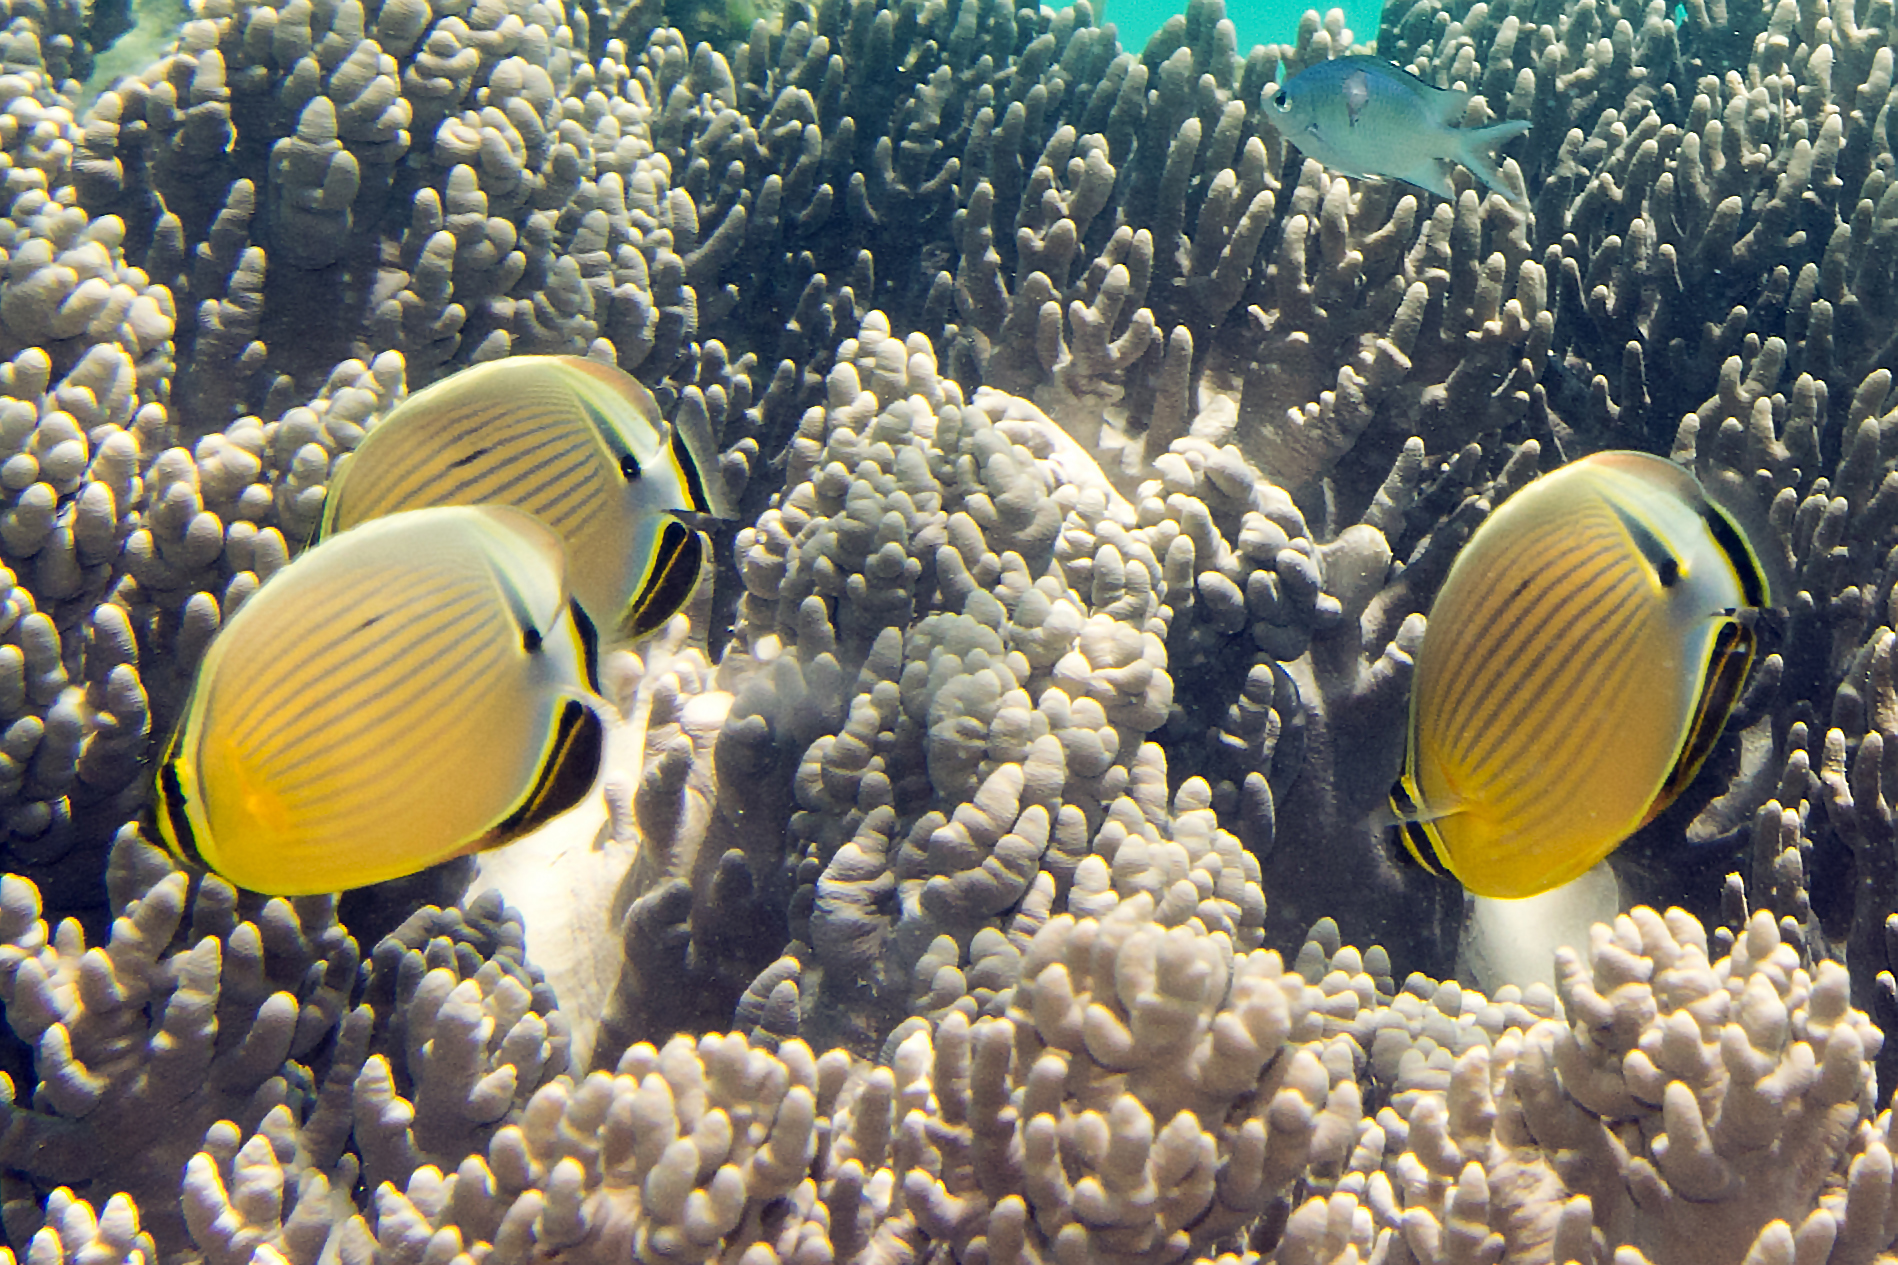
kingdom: Animalia
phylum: Chordata
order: Perciformes
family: Chaetodontidae
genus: Chaetodon
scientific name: Chaetodon lunulatus
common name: Redfin butterflyfish
